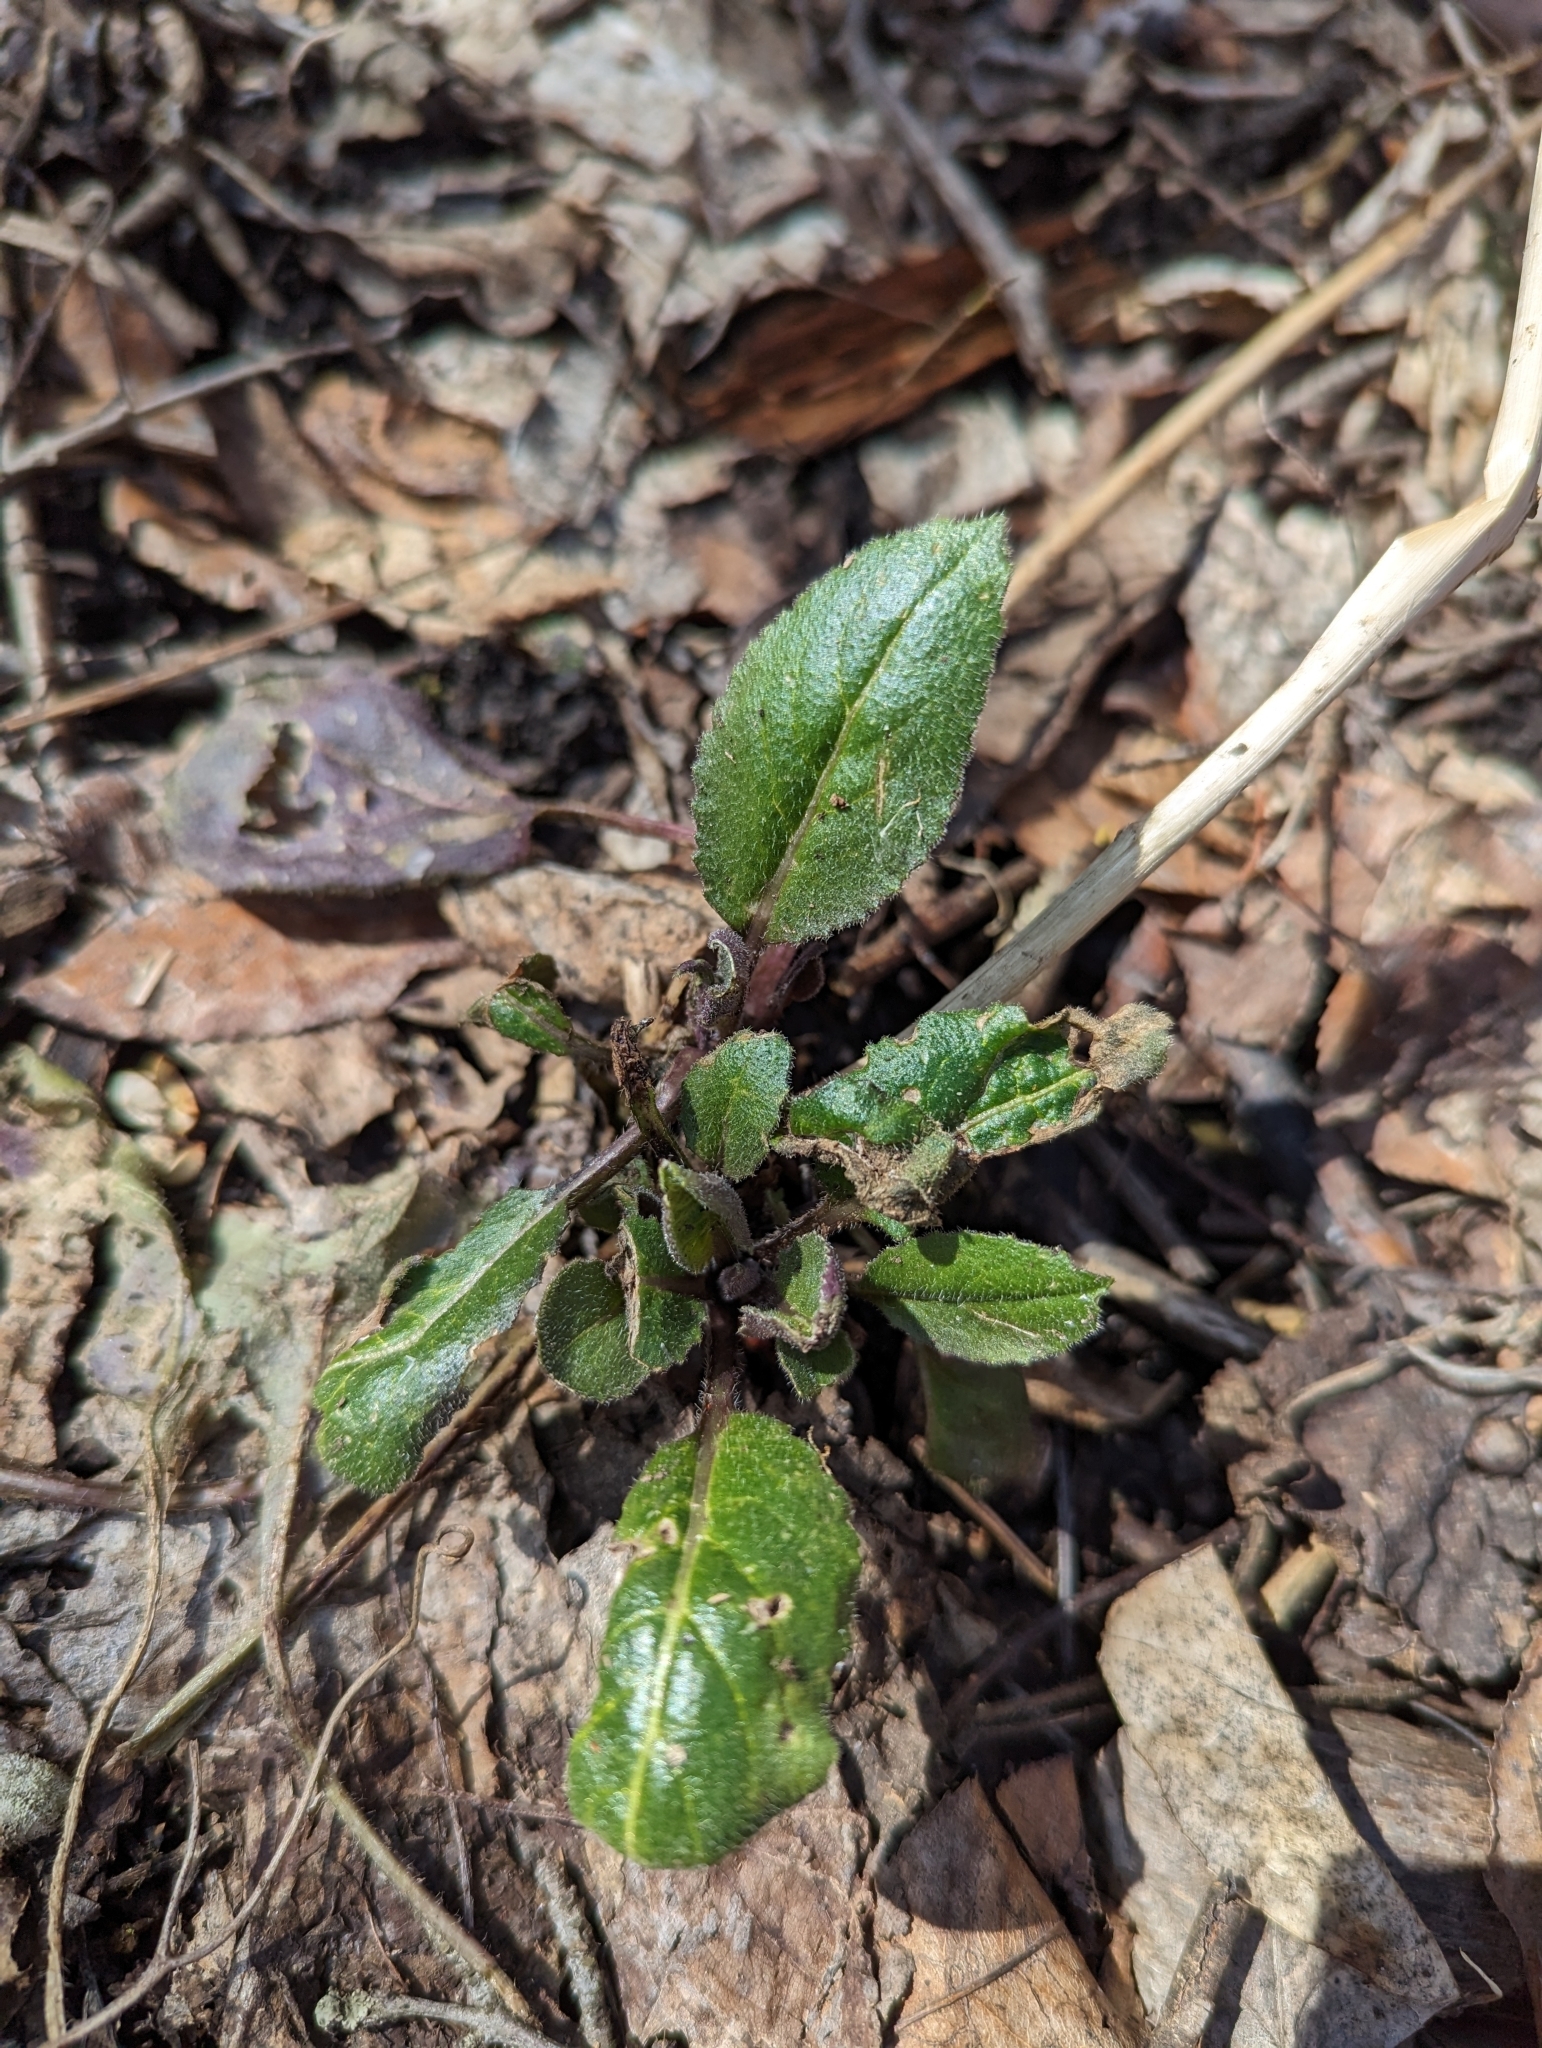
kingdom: Plantae
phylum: Tracheophyta
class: Magnoliopsida
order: Brassicales
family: Brassicaceae
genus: Hesperis
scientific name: Hesperis matronalis
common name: Dame's-violet
